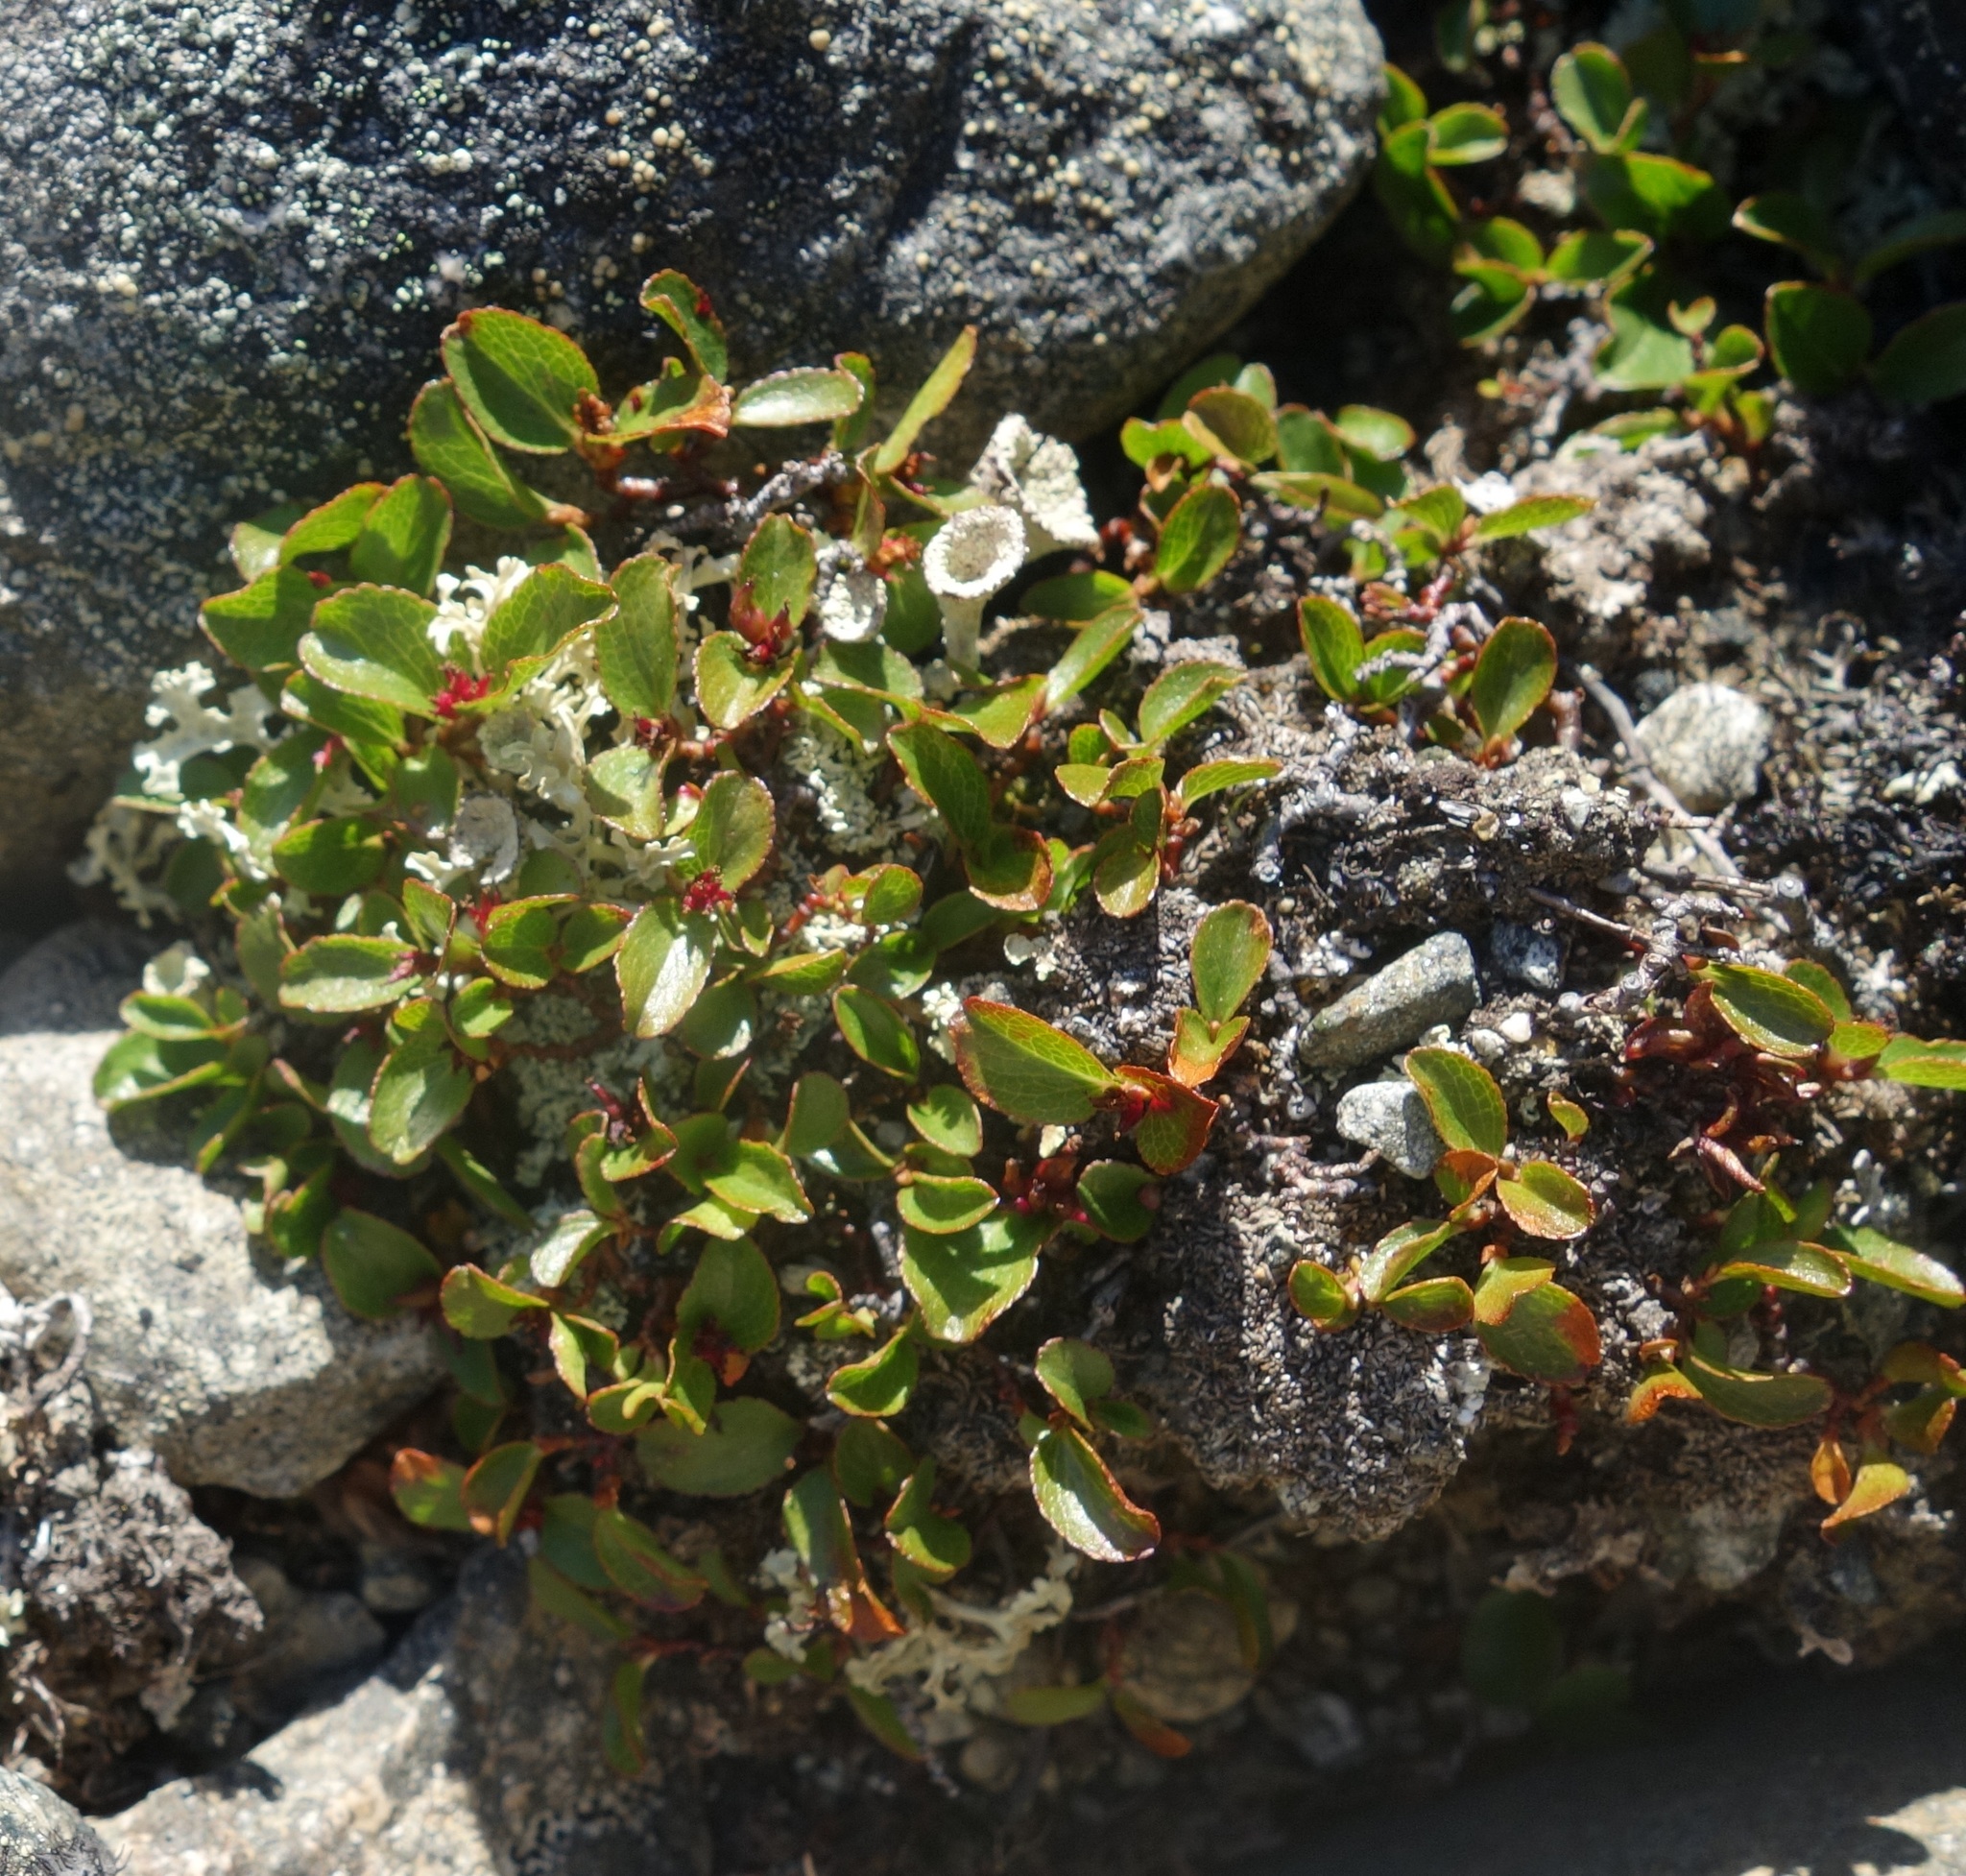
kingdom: Plantae
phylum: Tracheophyta
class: Magnoliopsida
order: Malpighiales
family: Salicaceae
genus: Salix
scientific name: Salix herbacea
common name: Dwarf willow
